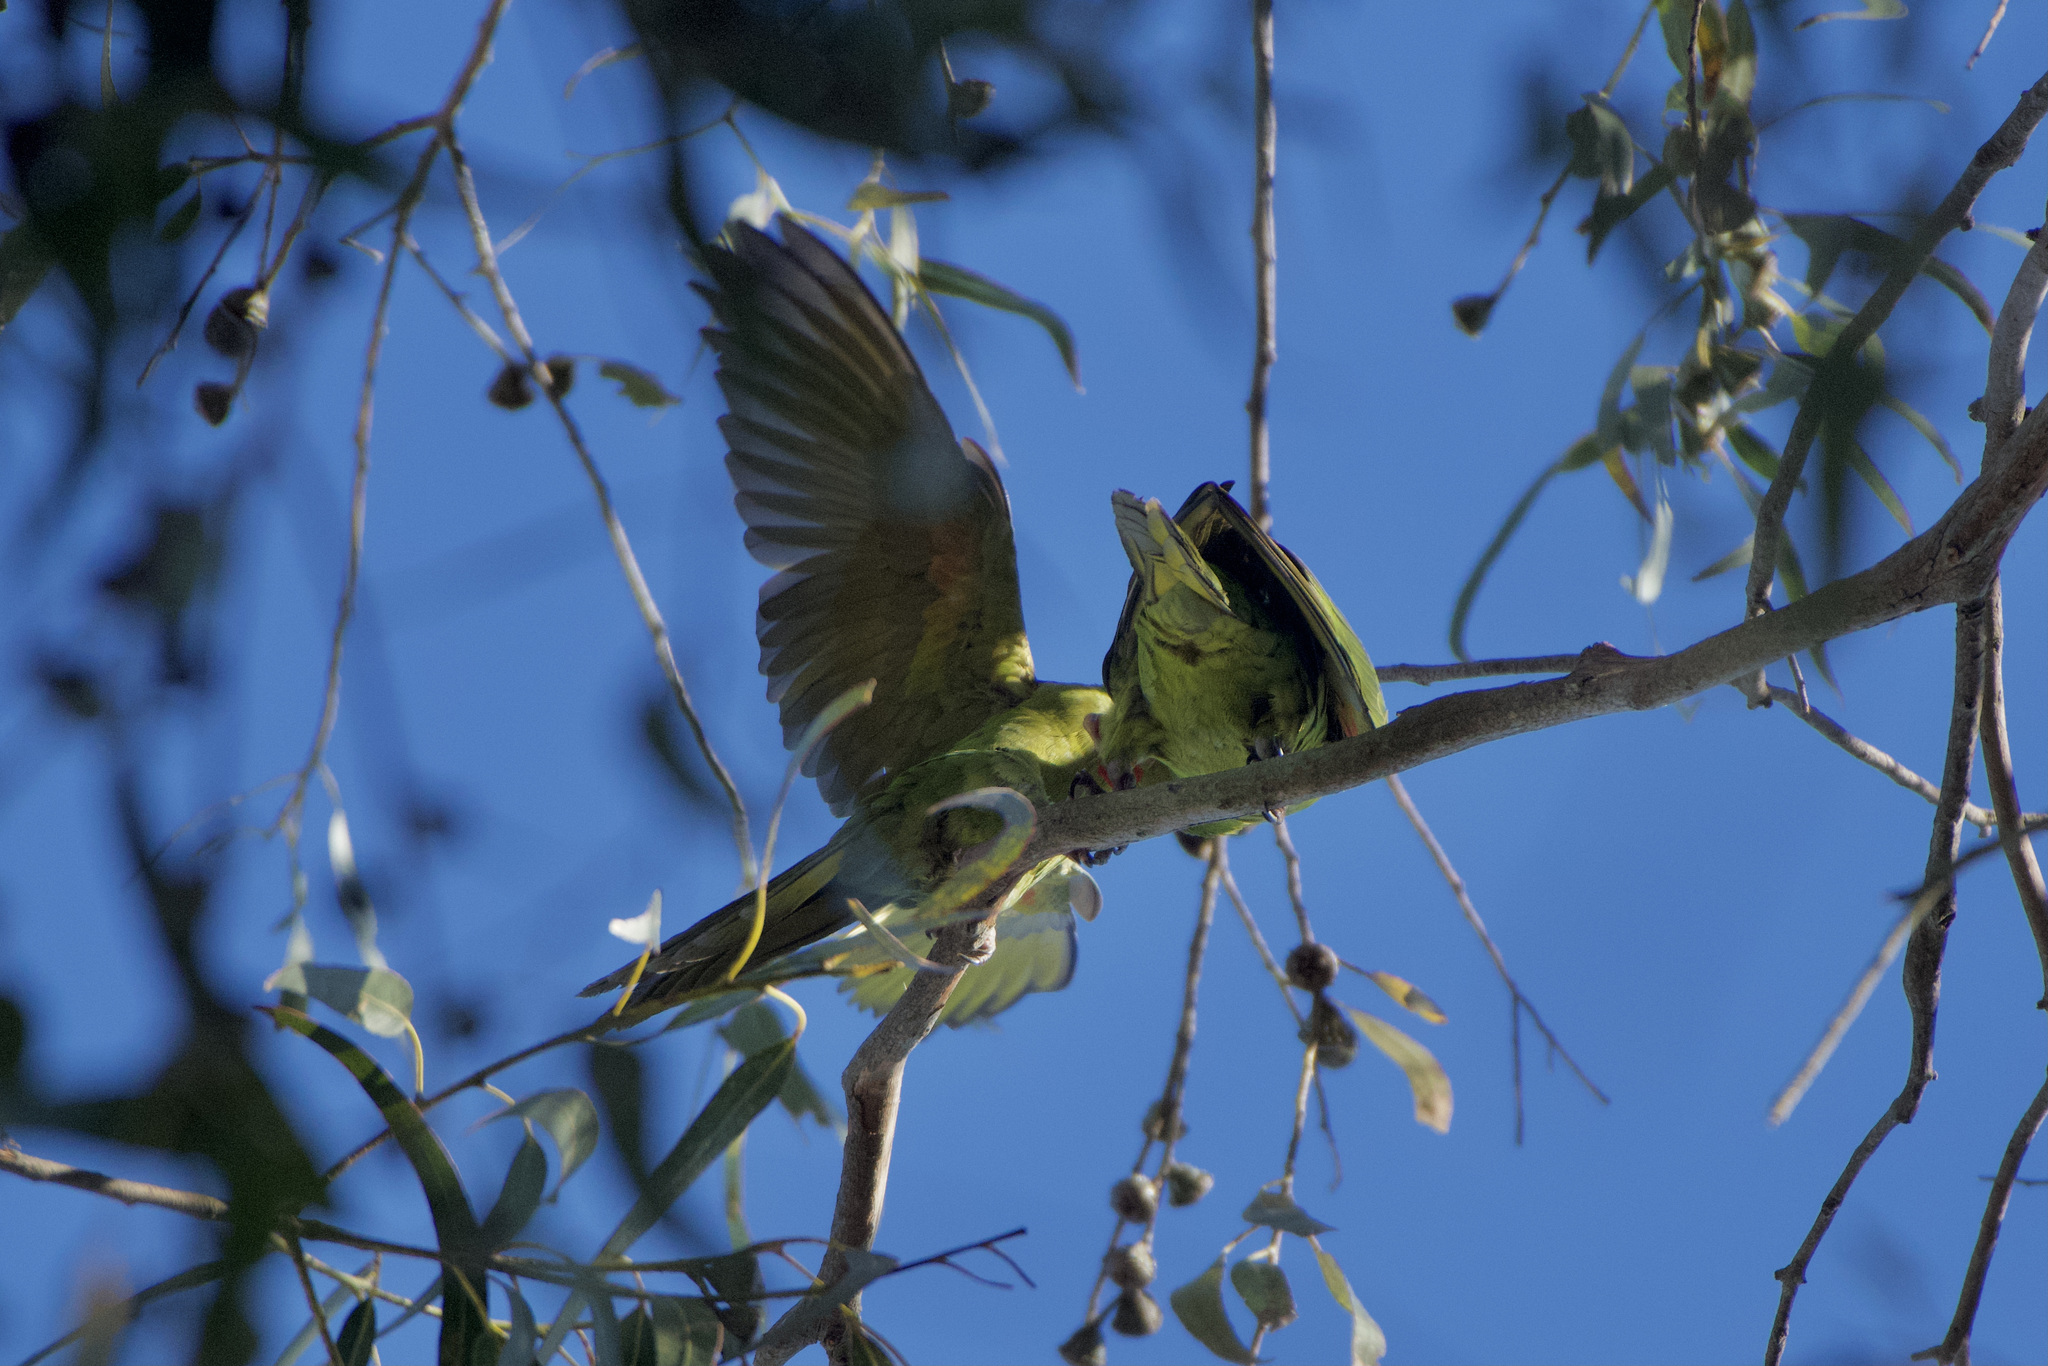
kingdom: Animalia
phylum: Chordata
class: Aves
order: Psittaciformes
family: Psittacidae
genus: Aratinga
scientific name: Aratinga erythrogenys
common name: Red-masked parakeet
